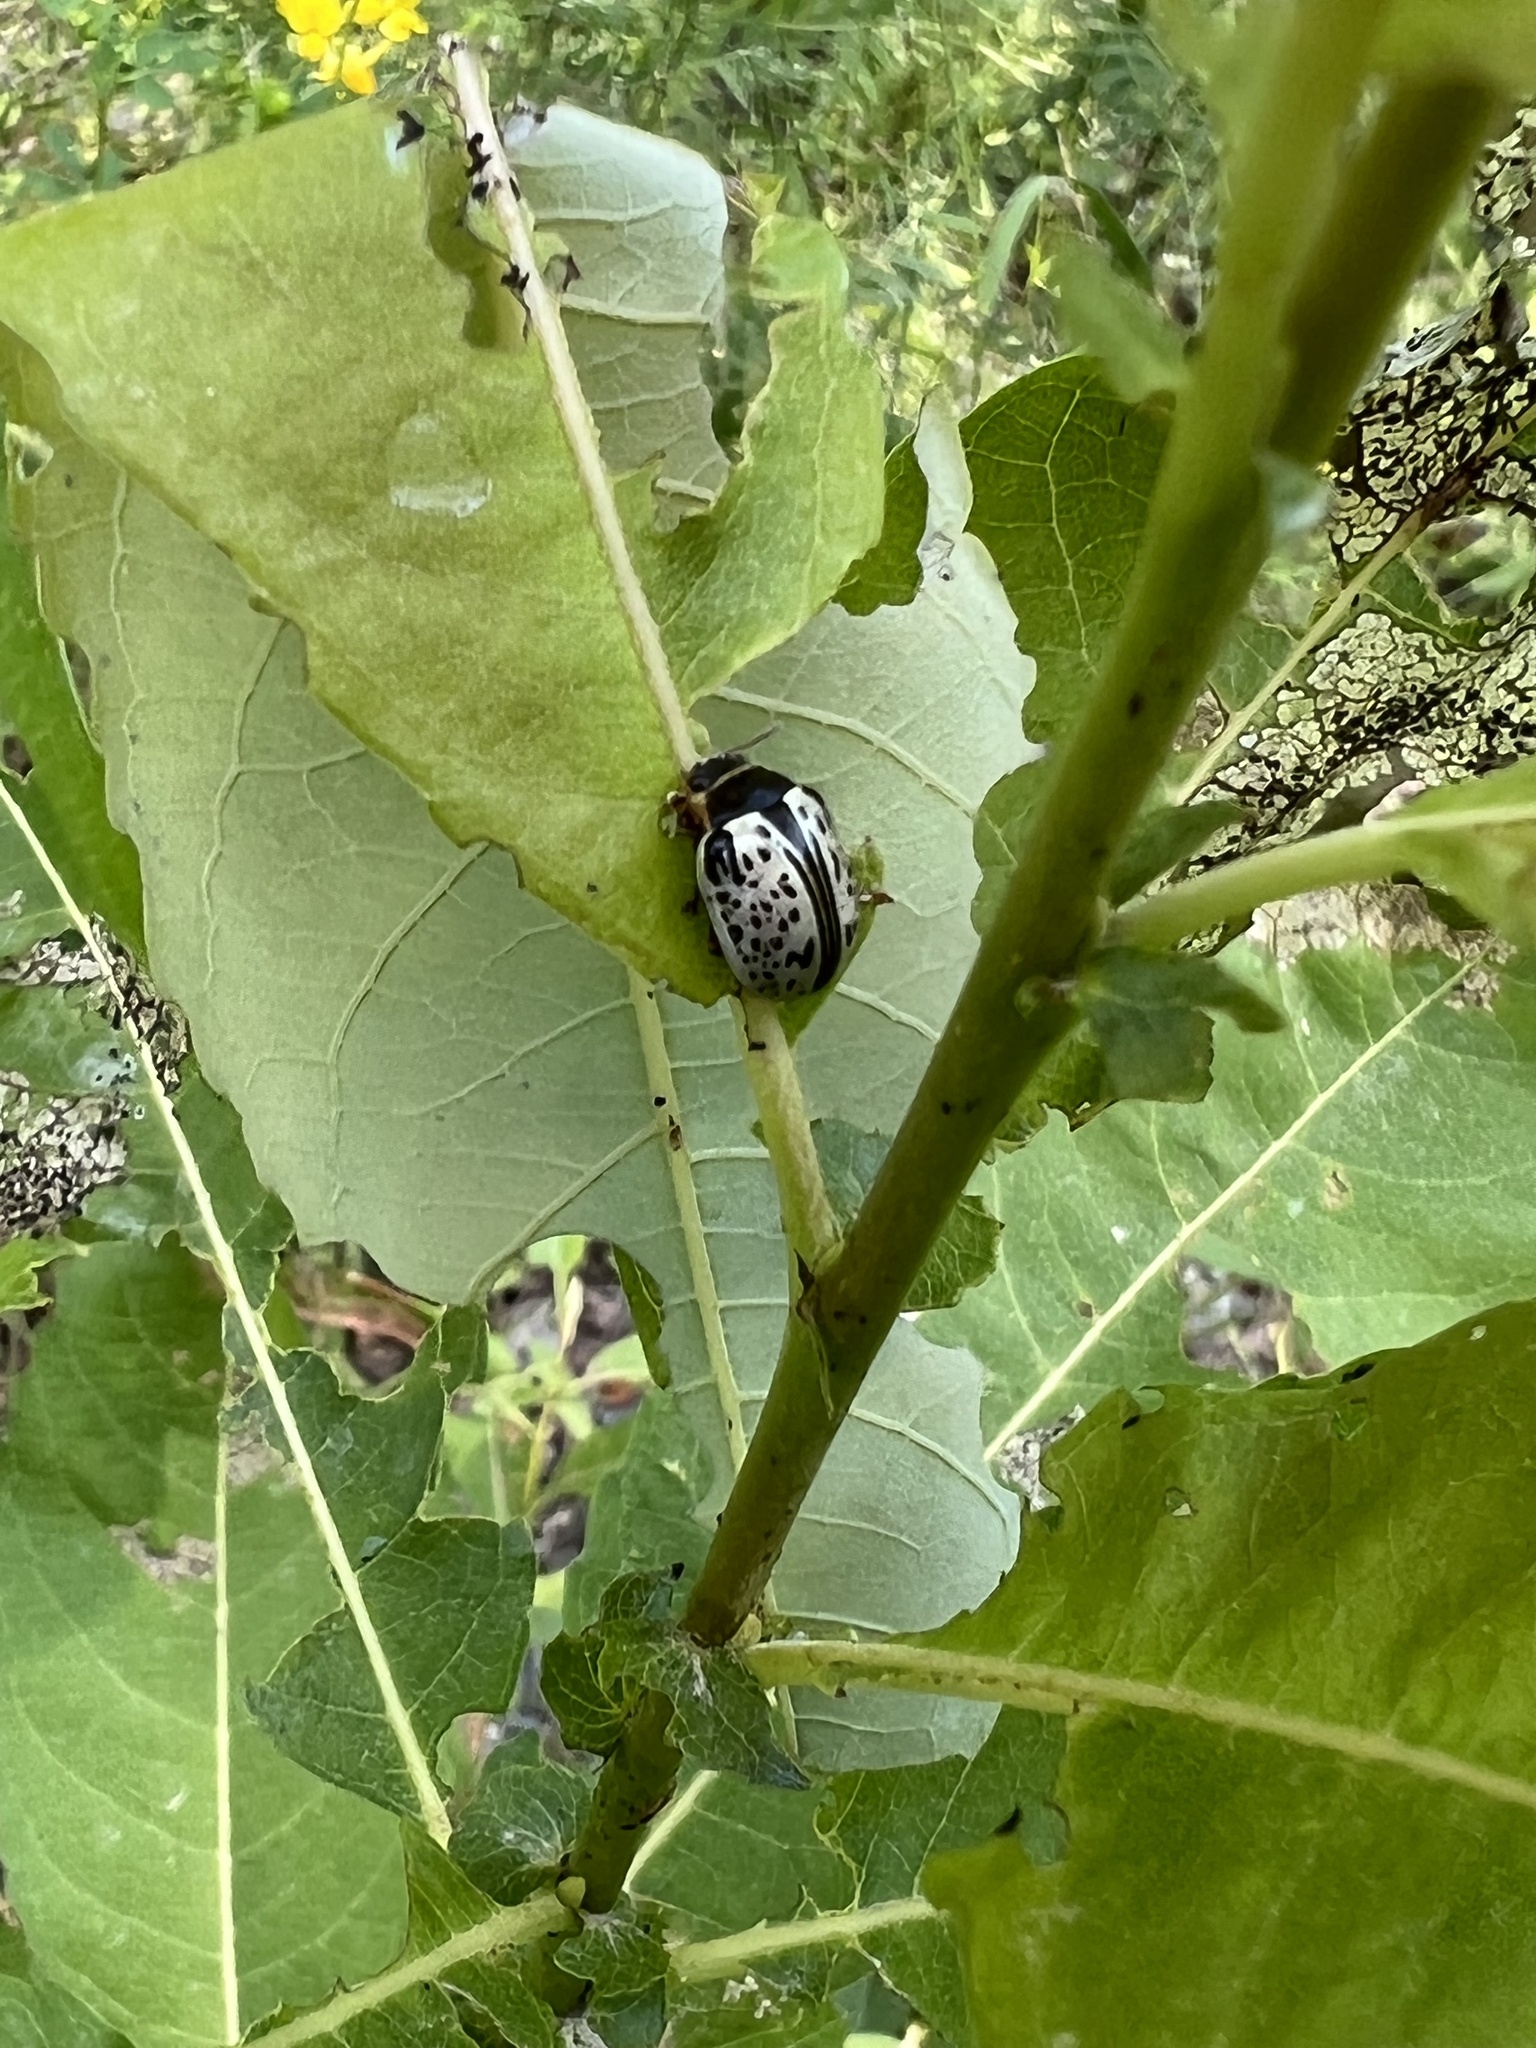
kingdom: Animalia
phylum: Arthropoda
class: Insecta
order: Coleoptera
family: Chrysomelidae
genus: Calligrapha
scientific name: Calligrapha multipunctata
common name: Common willow calligrapher beetle
